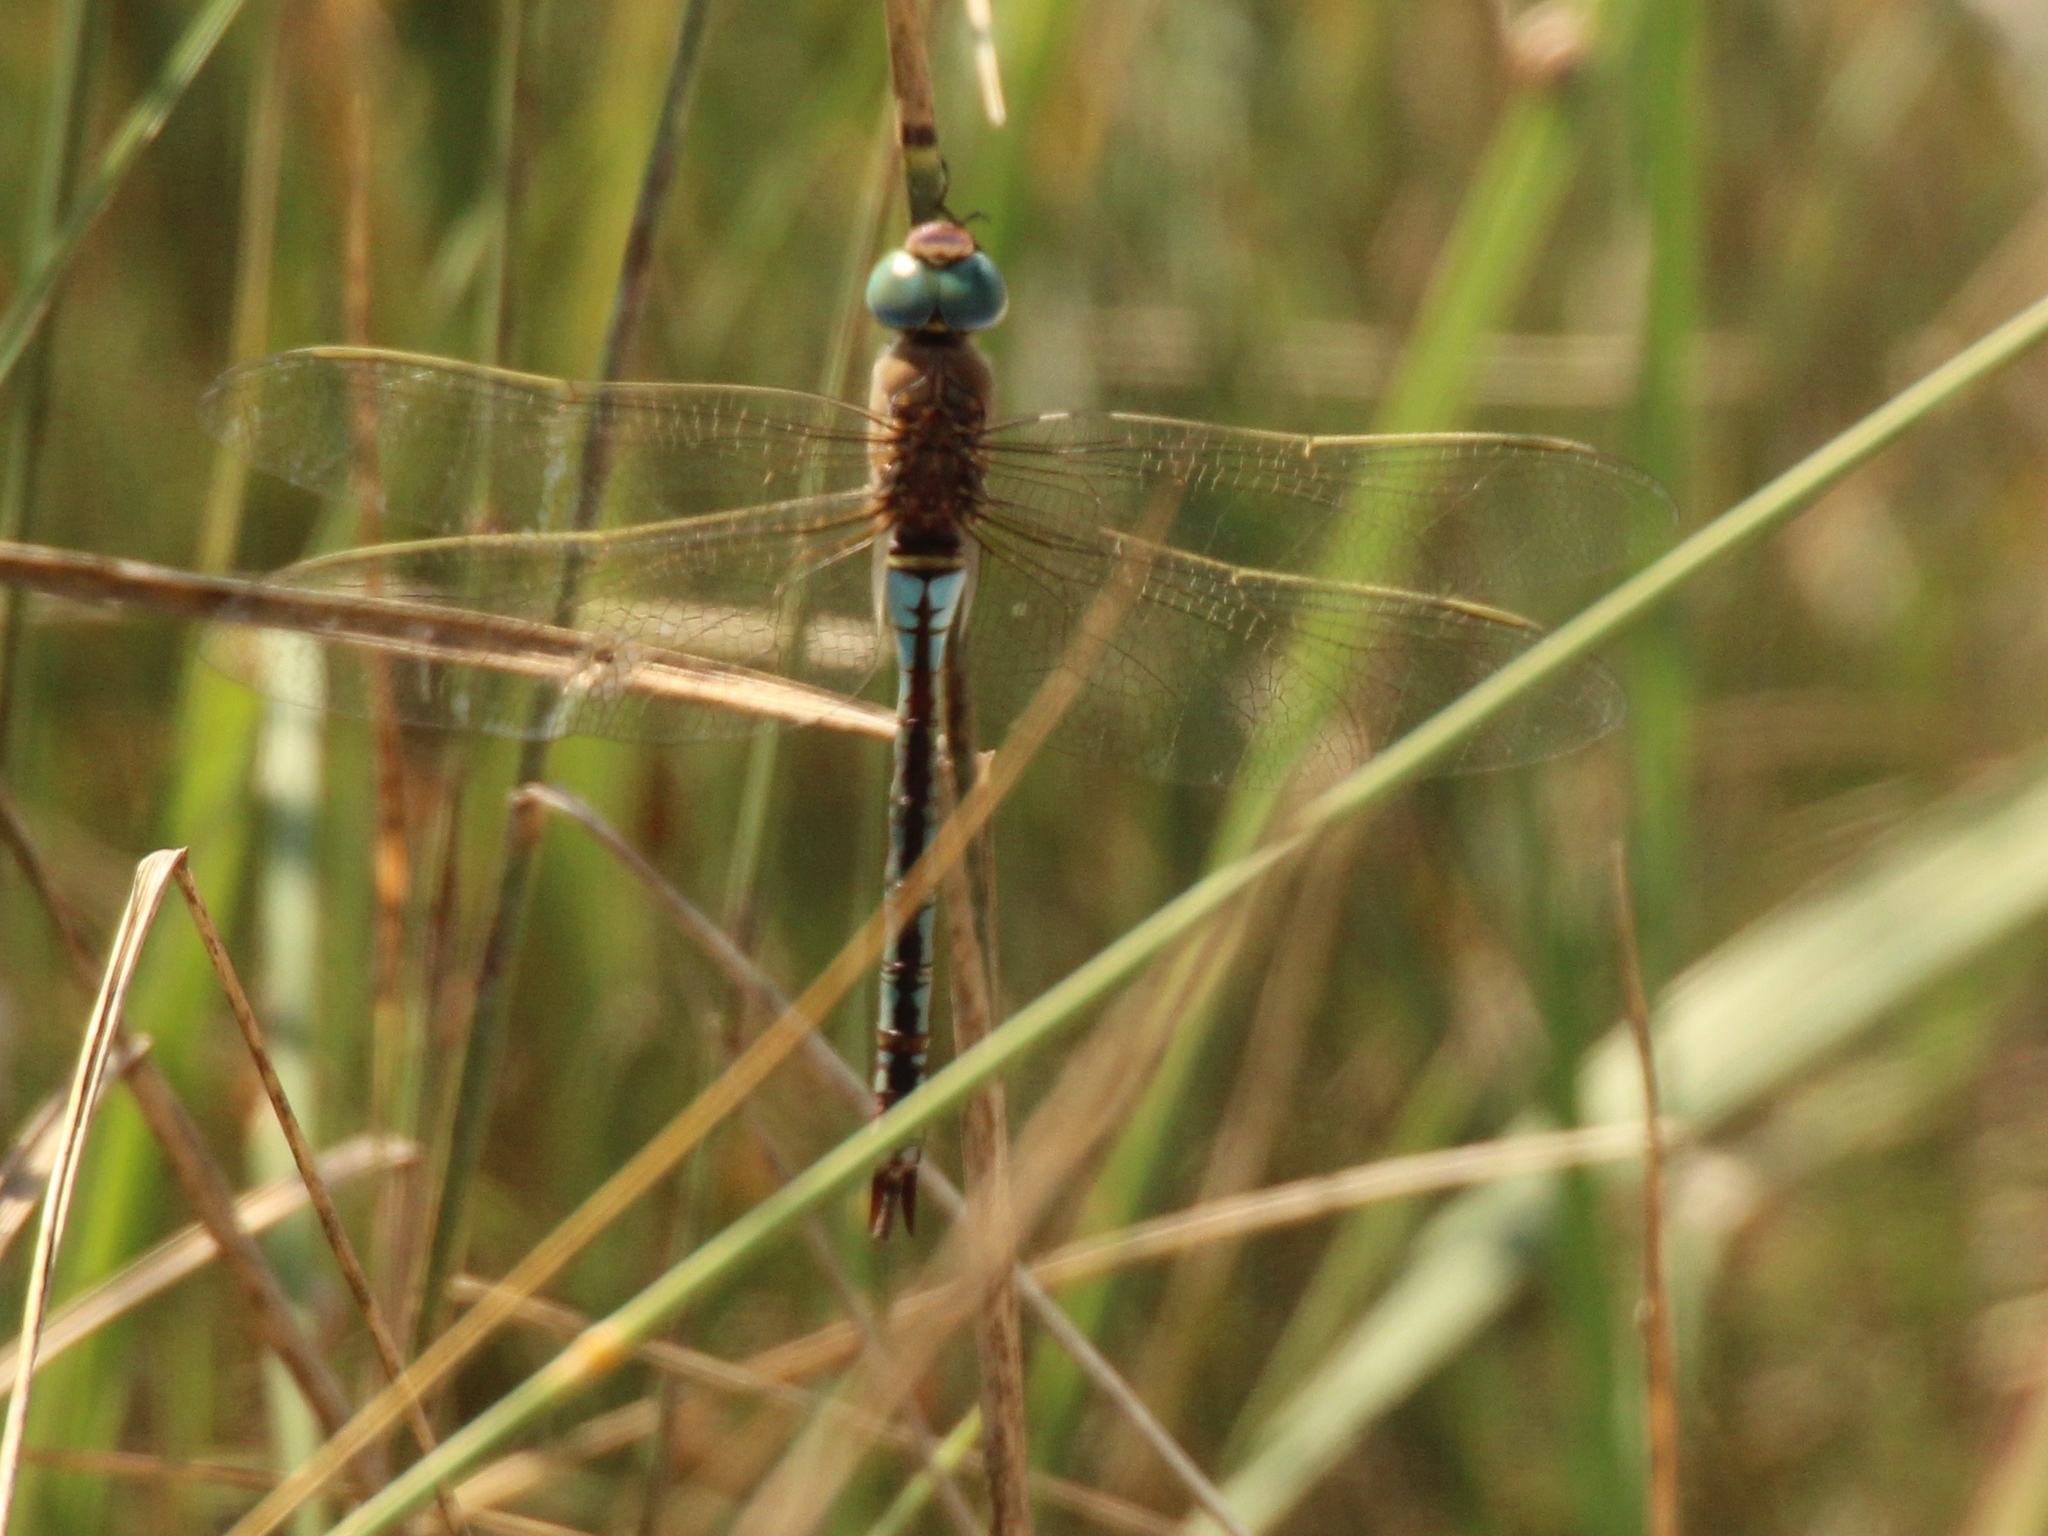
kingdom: Animalia
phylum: Arthropoda
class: Insecta
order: Odonata
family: Aeshnidae
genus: Anax
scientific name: Anax parthenope
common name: Lesser emperor
